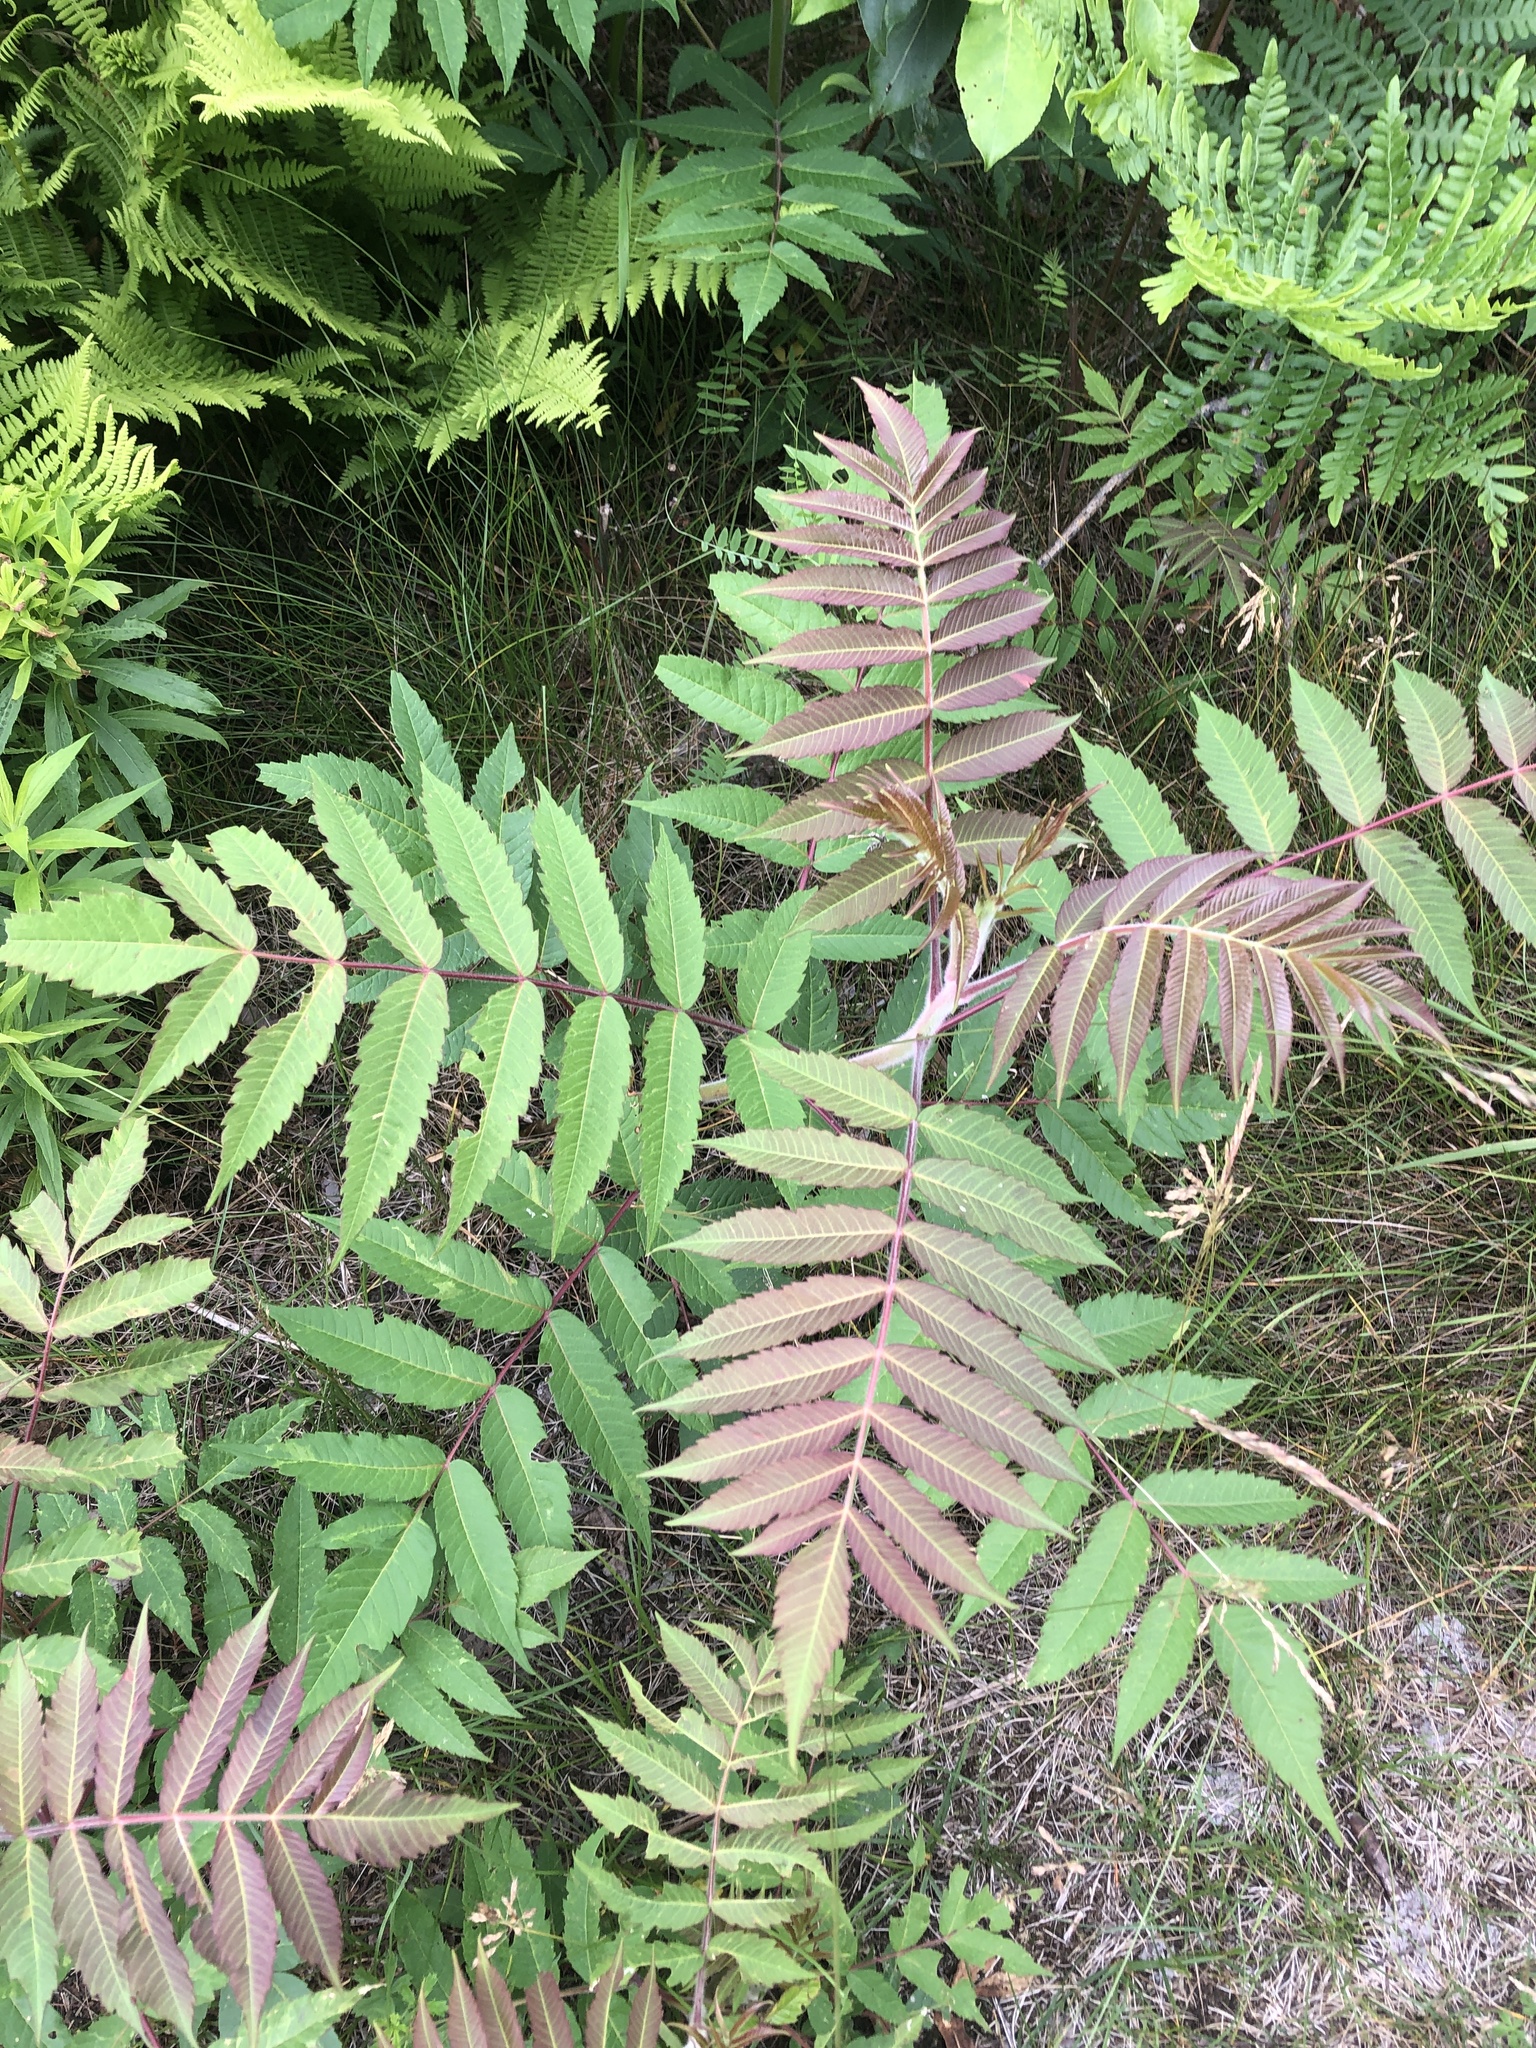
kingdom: Plantae
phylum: Tracheophyta
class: Magnoliopsida
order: Sapindales
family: Anacardiaceae
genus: Rhus
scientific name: Rhus typhina
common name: Staghorn sumac
